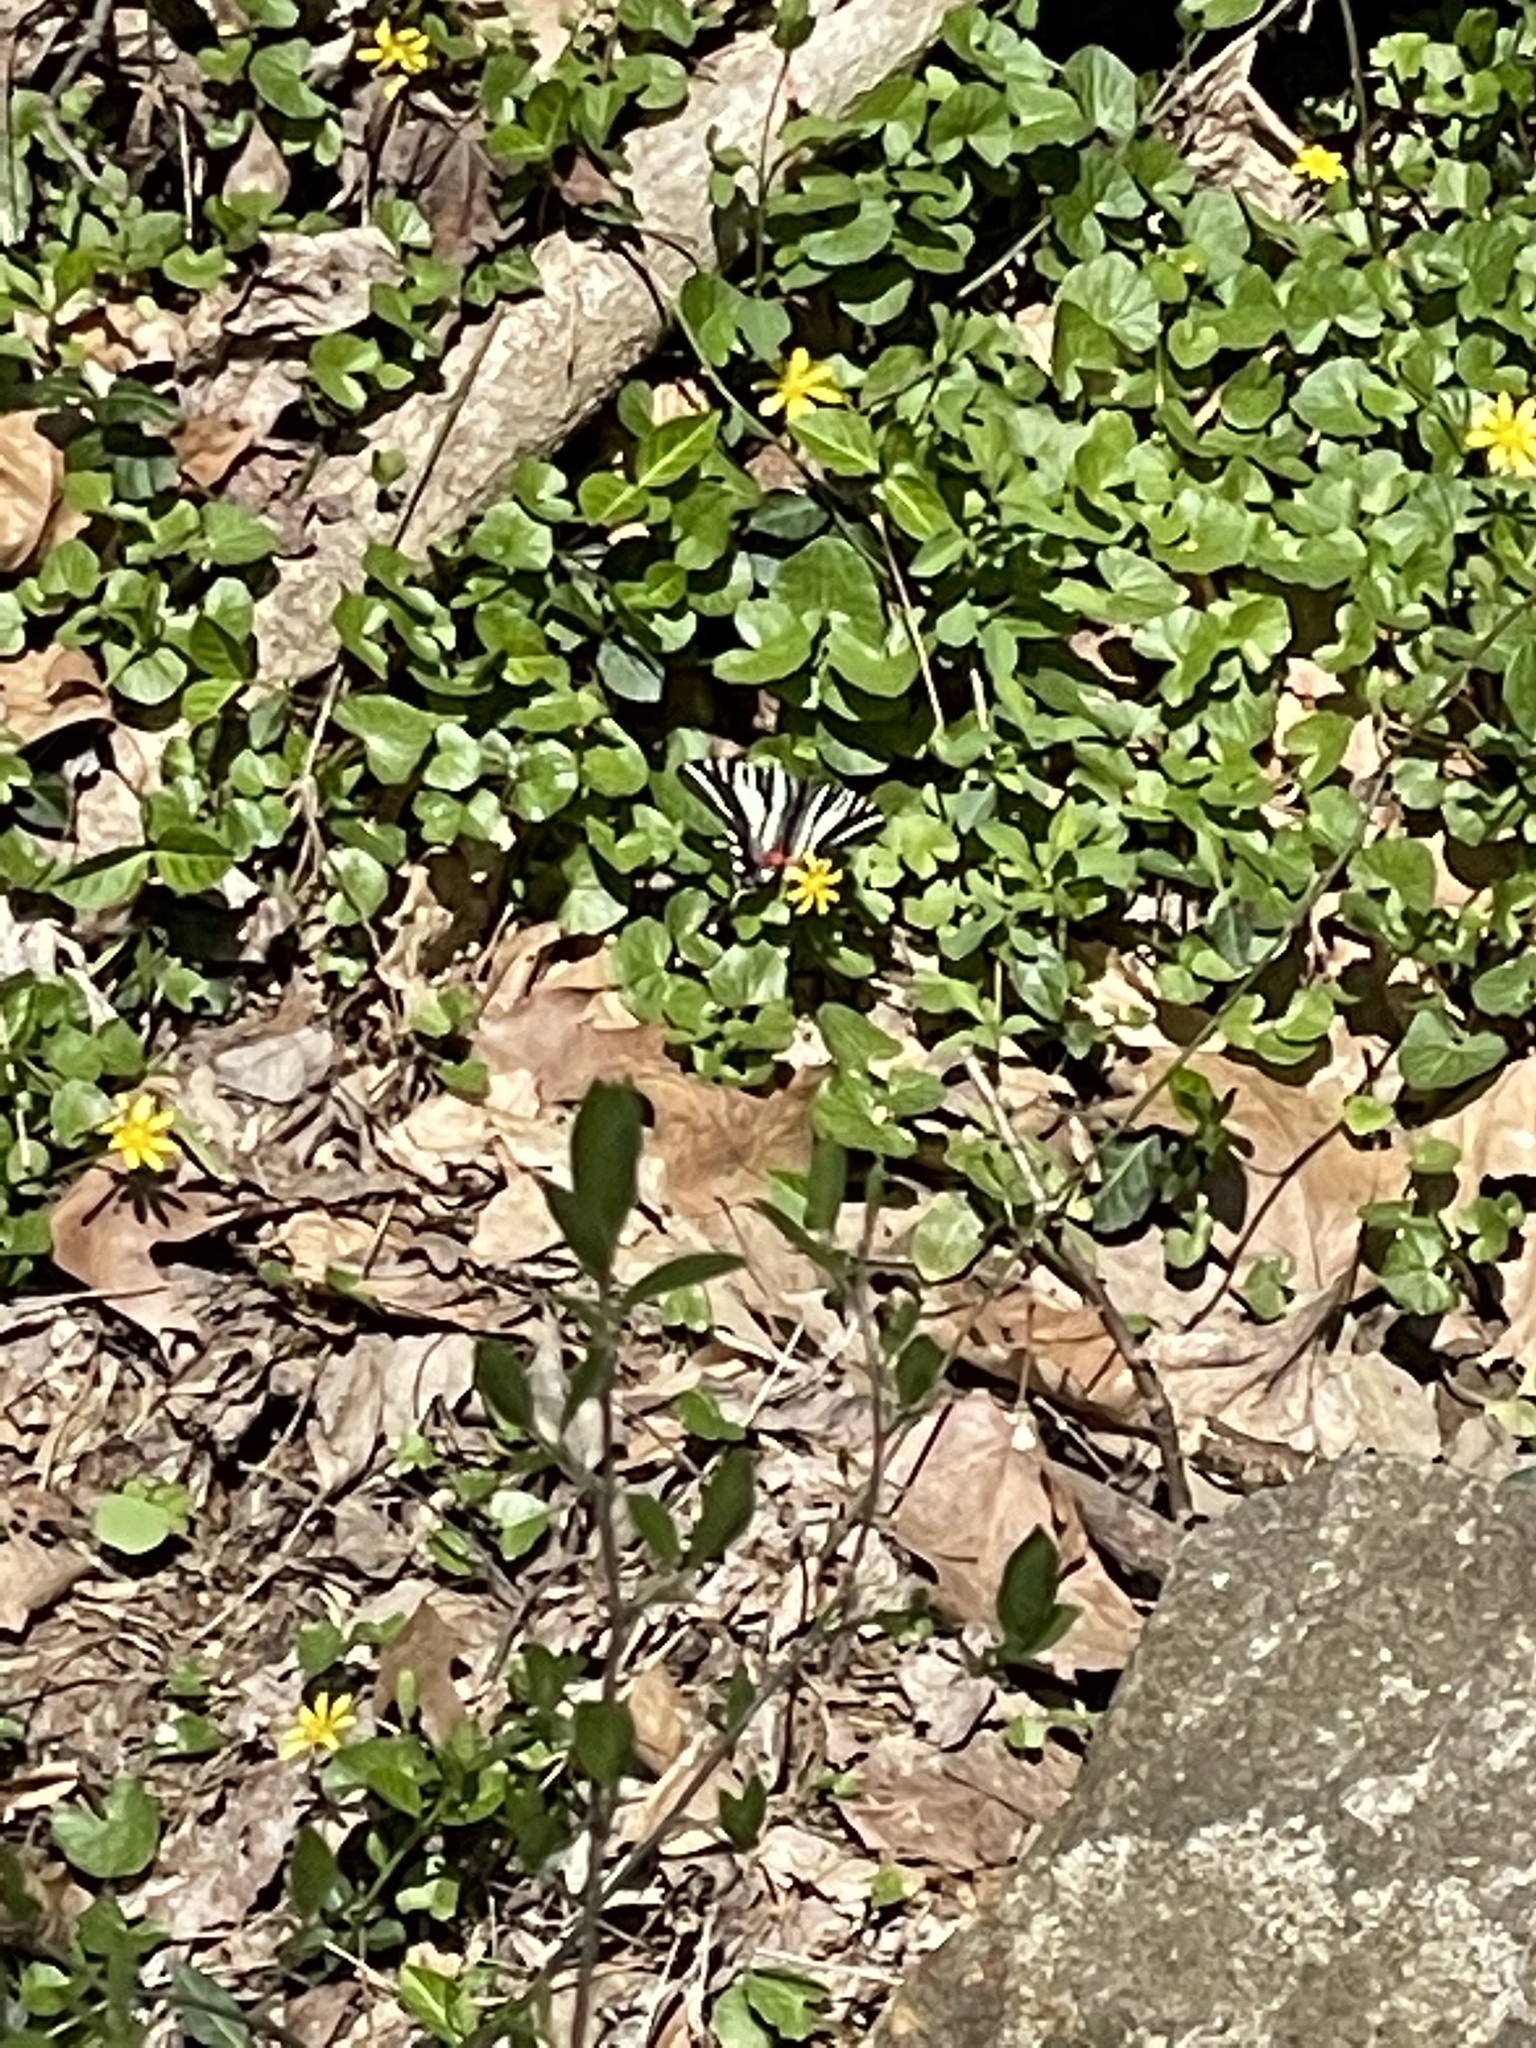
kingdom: Animalia
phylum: Arthropoda
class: Insecta
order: Lepidoptera
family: Papilionidae
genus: Protographium
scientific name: Protographium marcellus
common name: Zebra swallowtail
